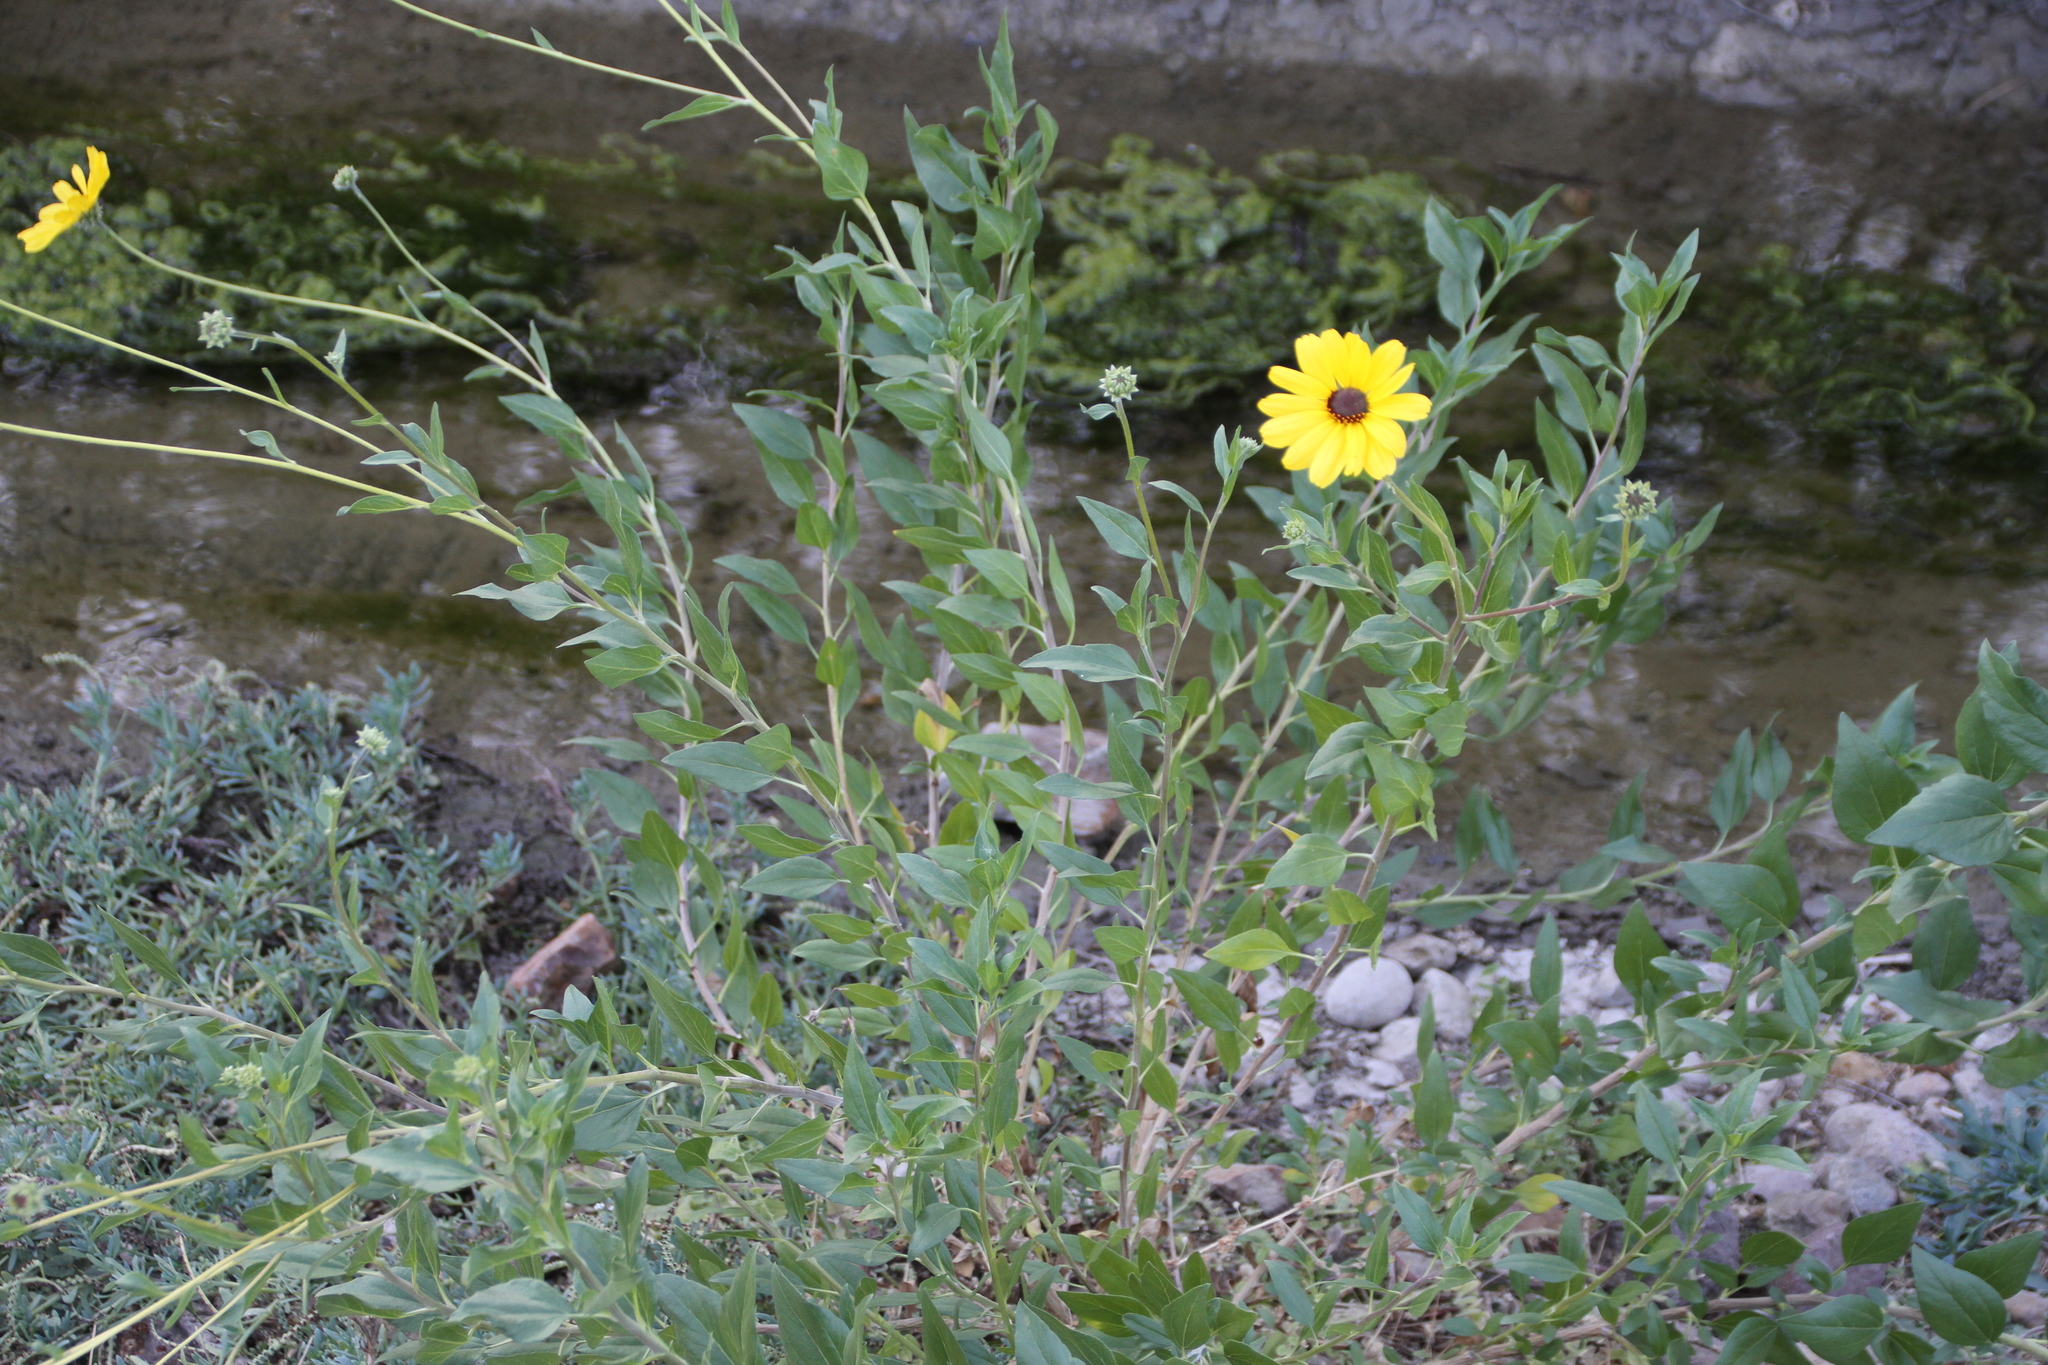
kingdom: Plantae
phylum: Tracheophyta
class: Magnoliopsida
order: Asterales
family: Asteraceae
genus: Encelia
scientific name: Encelia californica
